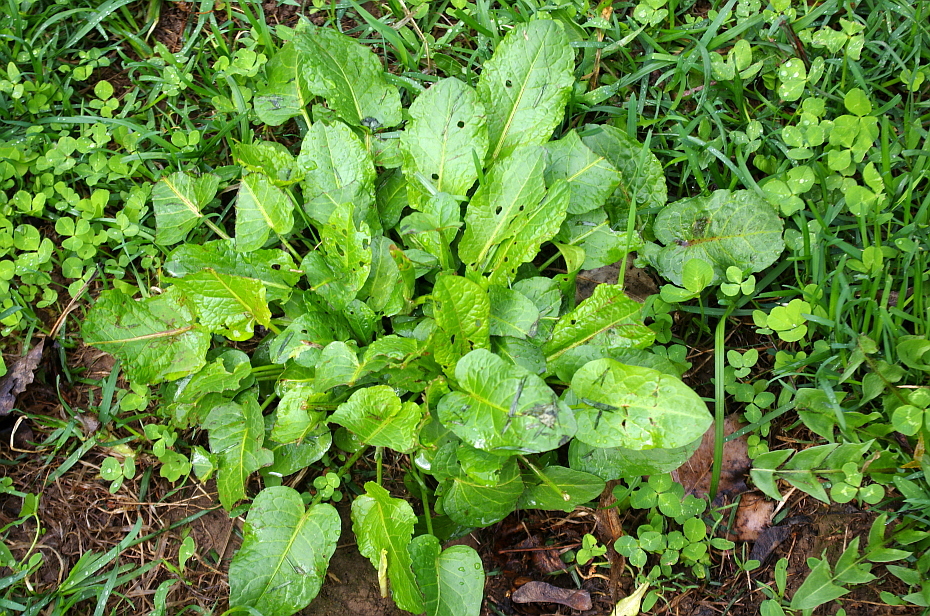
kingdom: Plantae
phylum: Tracheophyta
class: Magnoliopsida
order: Caryophyllales
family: Polygonaceae
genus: Rumex
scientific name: Rumex obtusifolius
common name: Bitter dock
